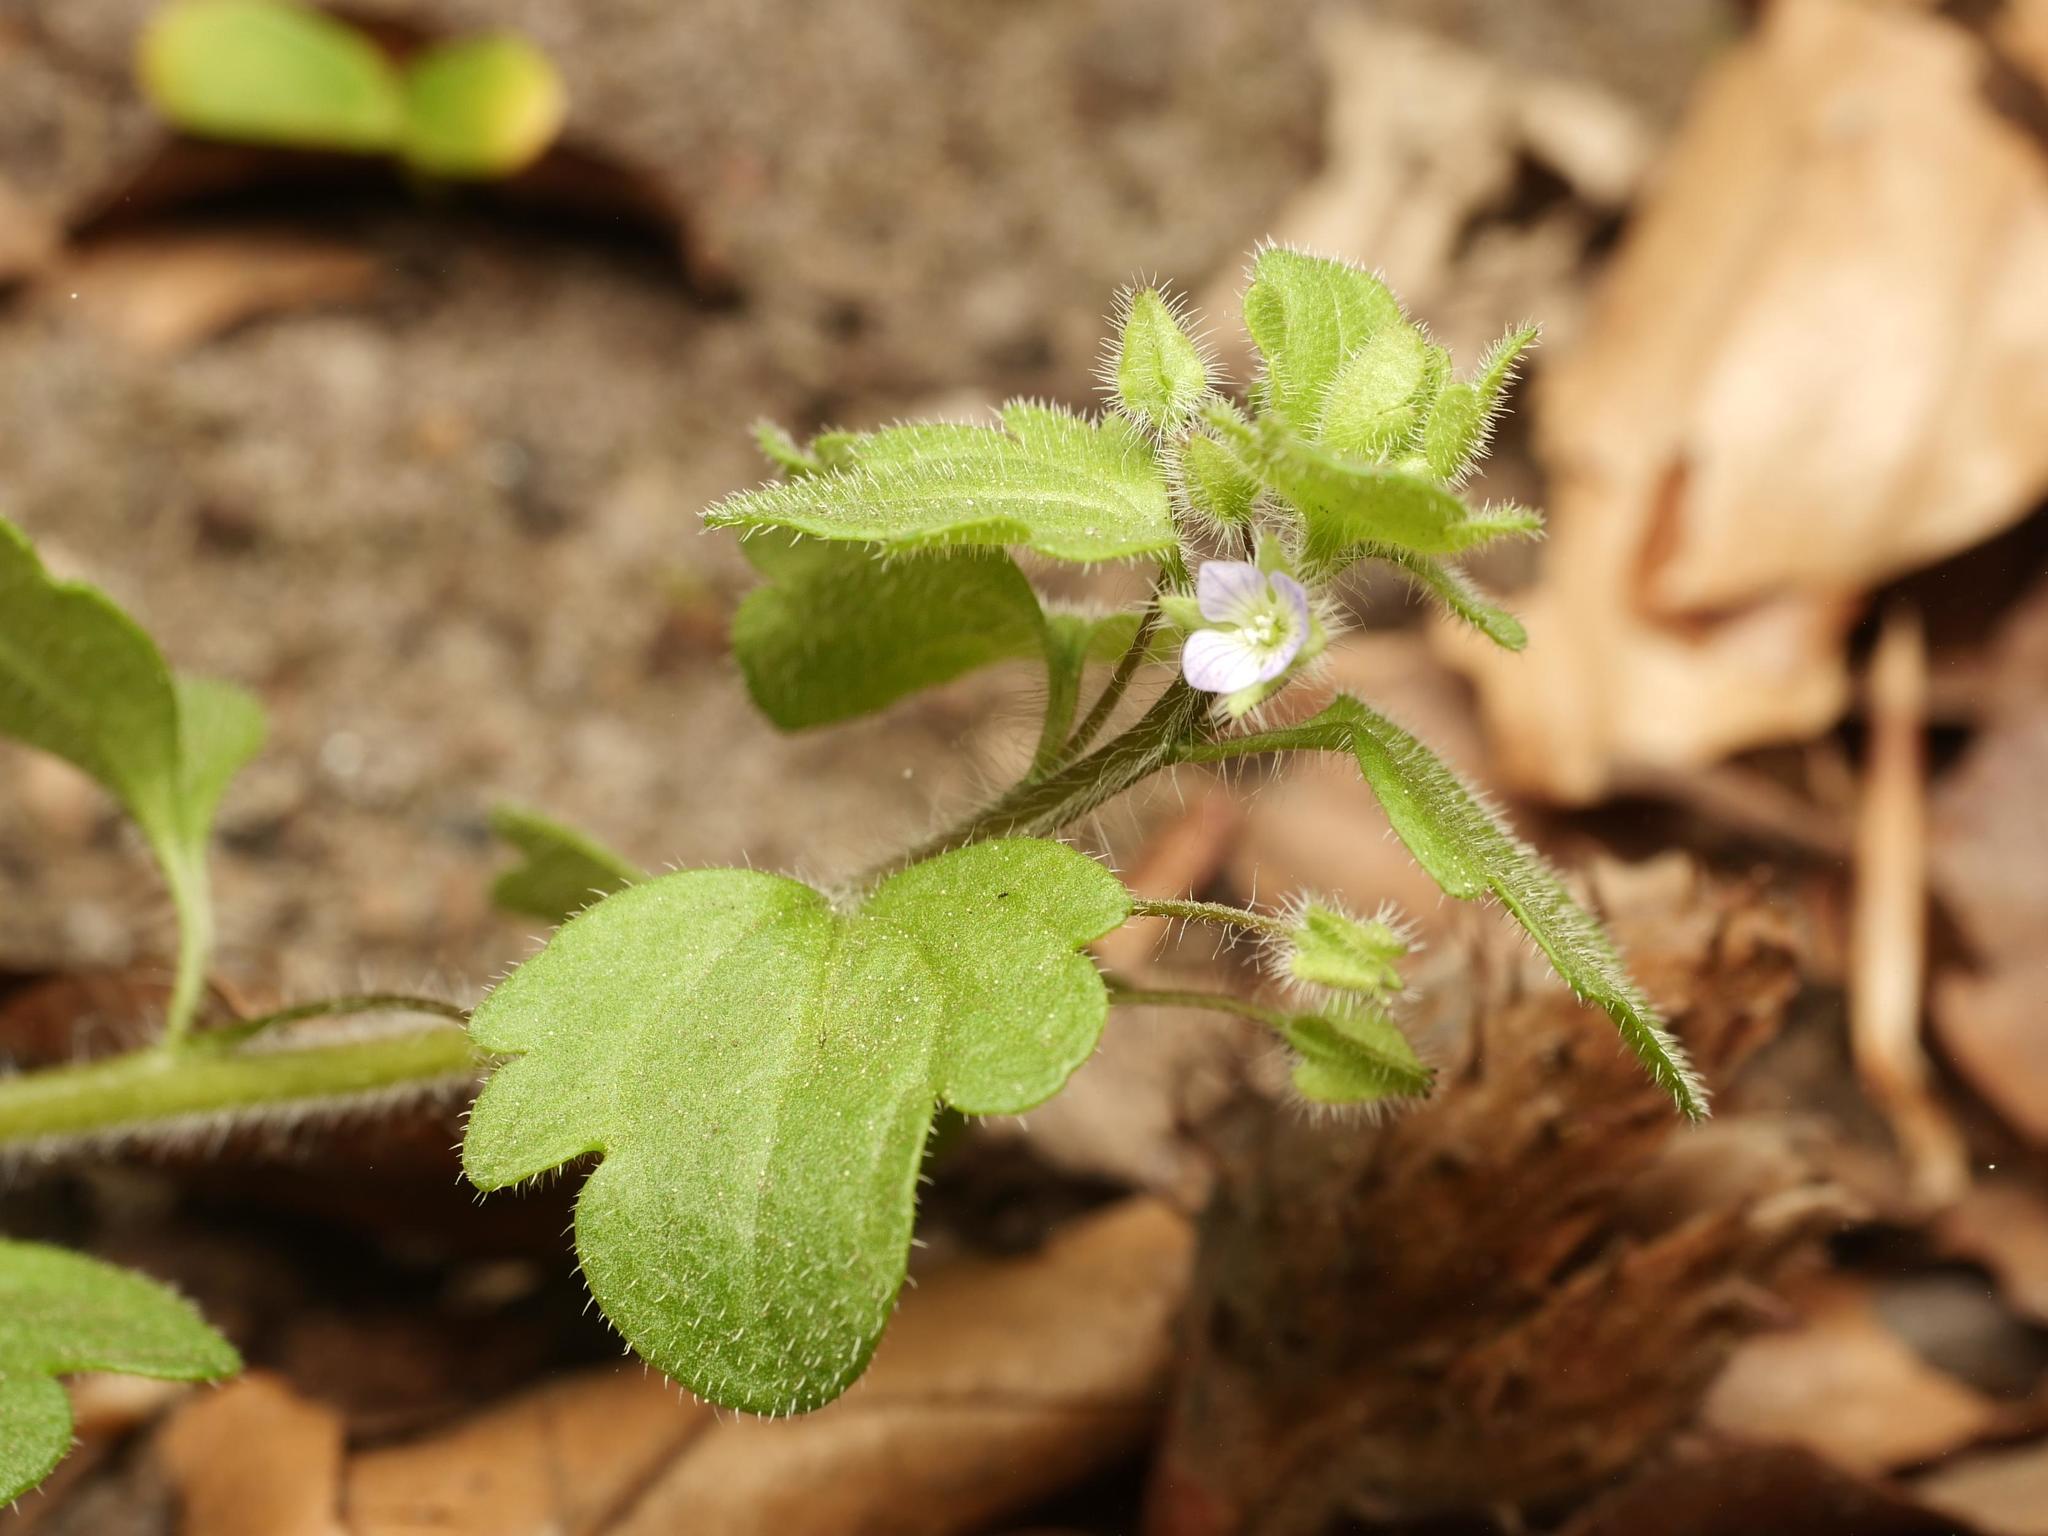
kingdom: Plantae
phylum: Tracheophyta
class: Magnoliopsida
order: Lamiales
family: Plantaginaceae
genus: Veronica
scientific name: Veronica sublobata
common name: False ivy-leaved speedwell
